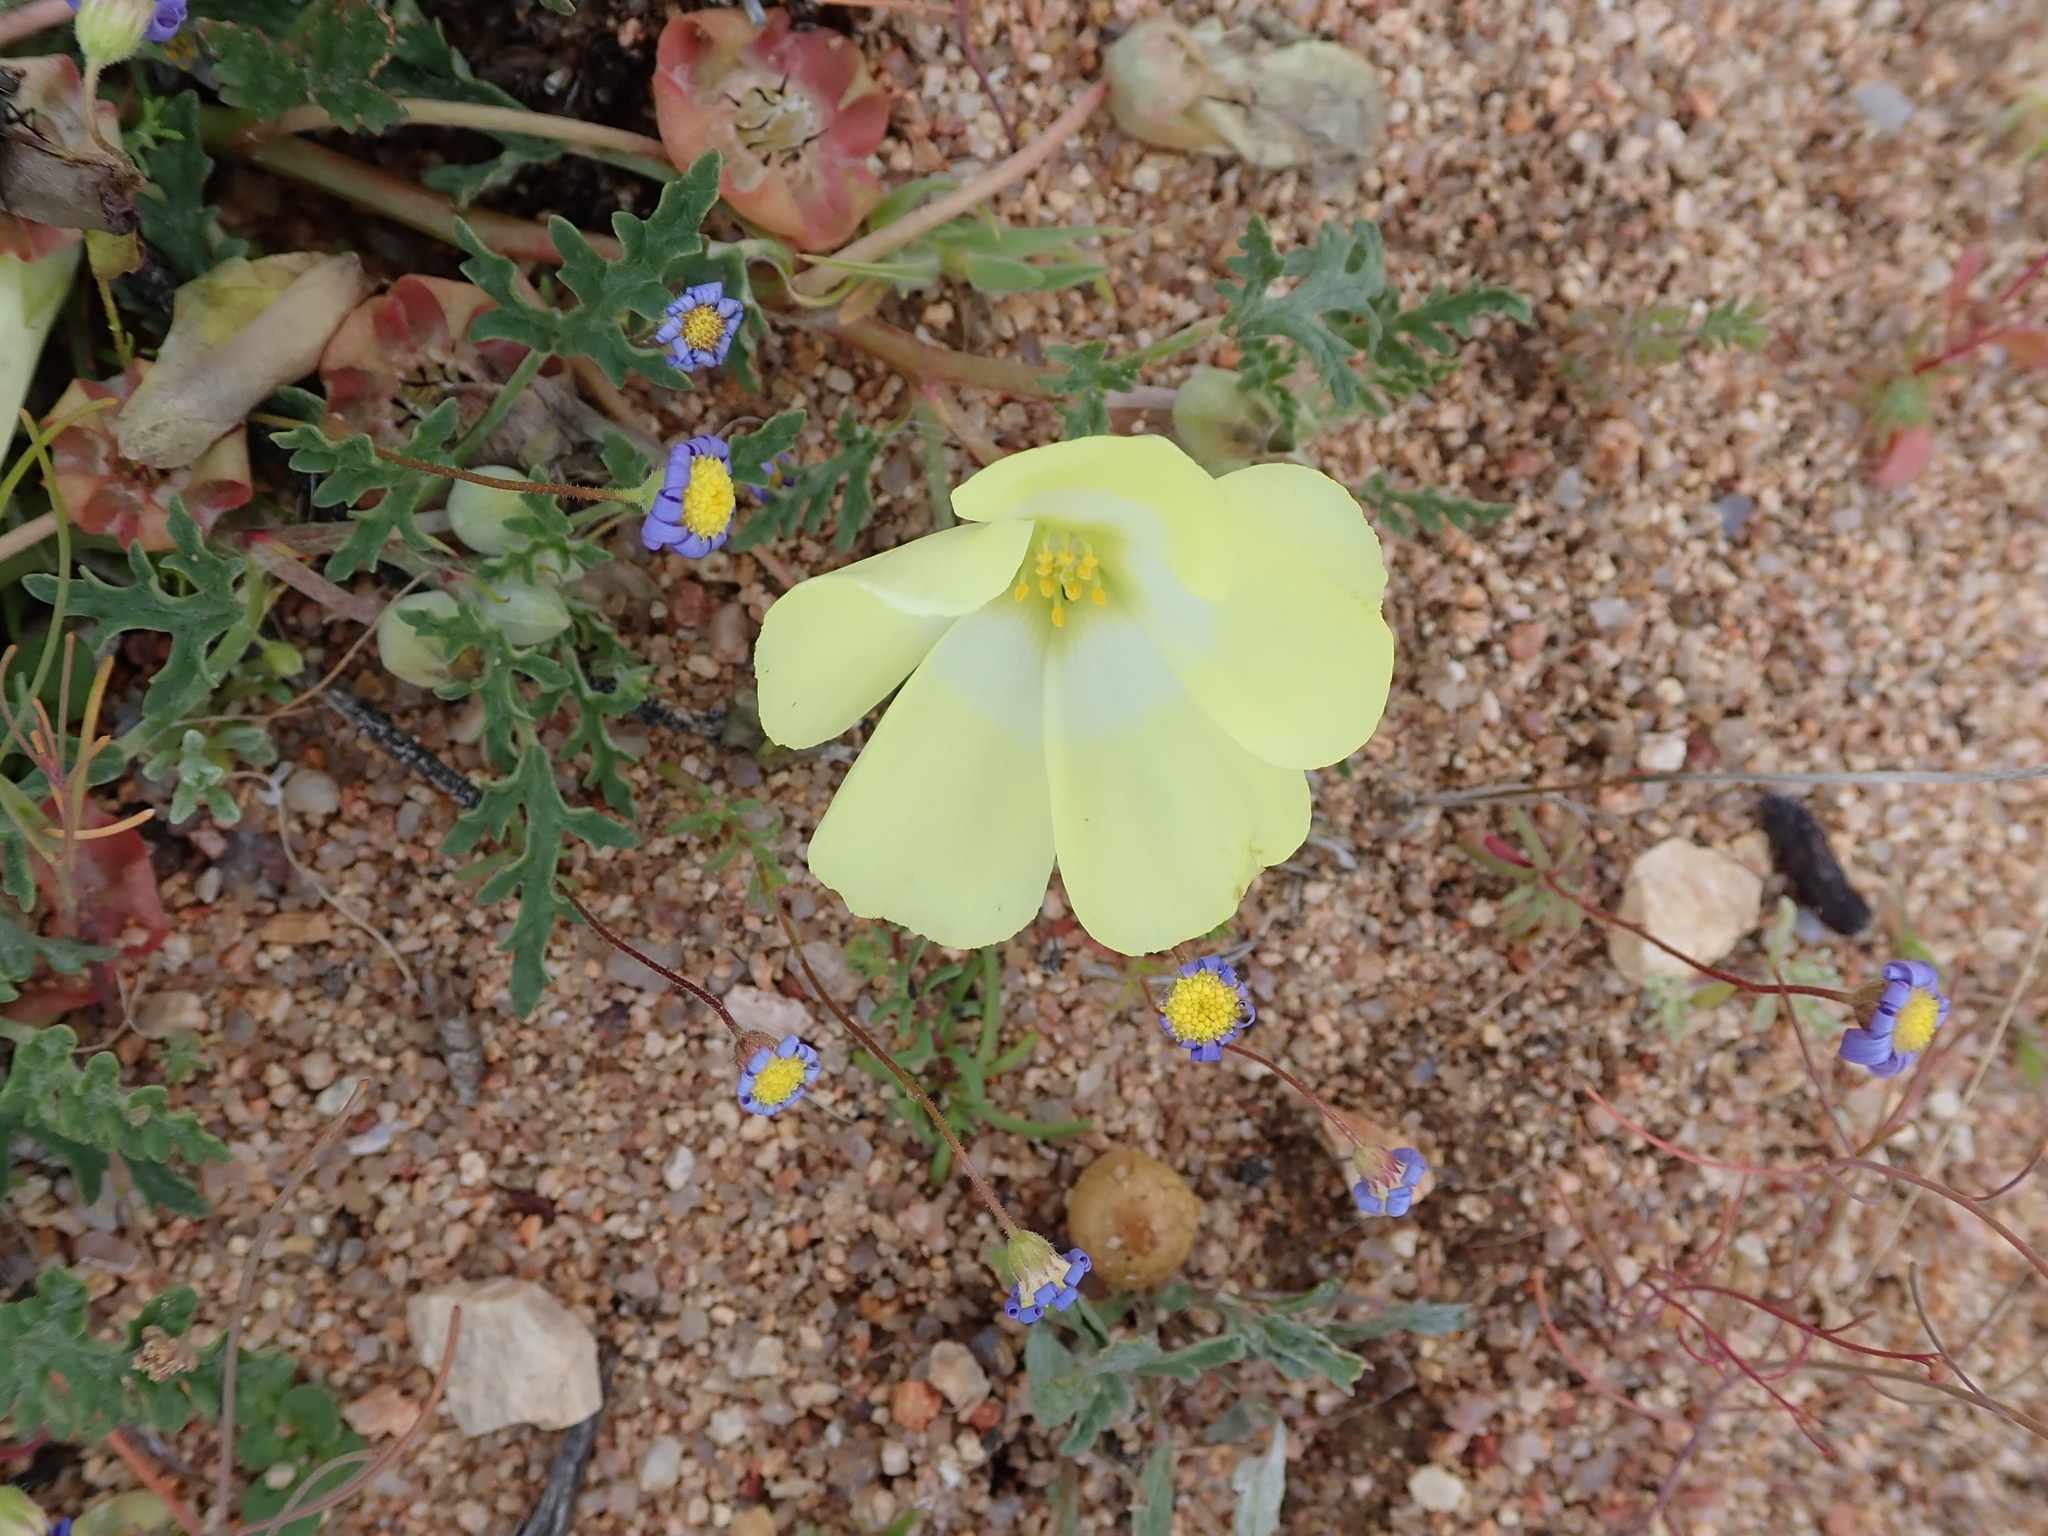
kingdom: Plantae
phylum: Tracheophyta
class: Magnoliopsida
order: Malvales
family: Neuradaceae
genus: Grielum
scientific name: Grielum humifusum
